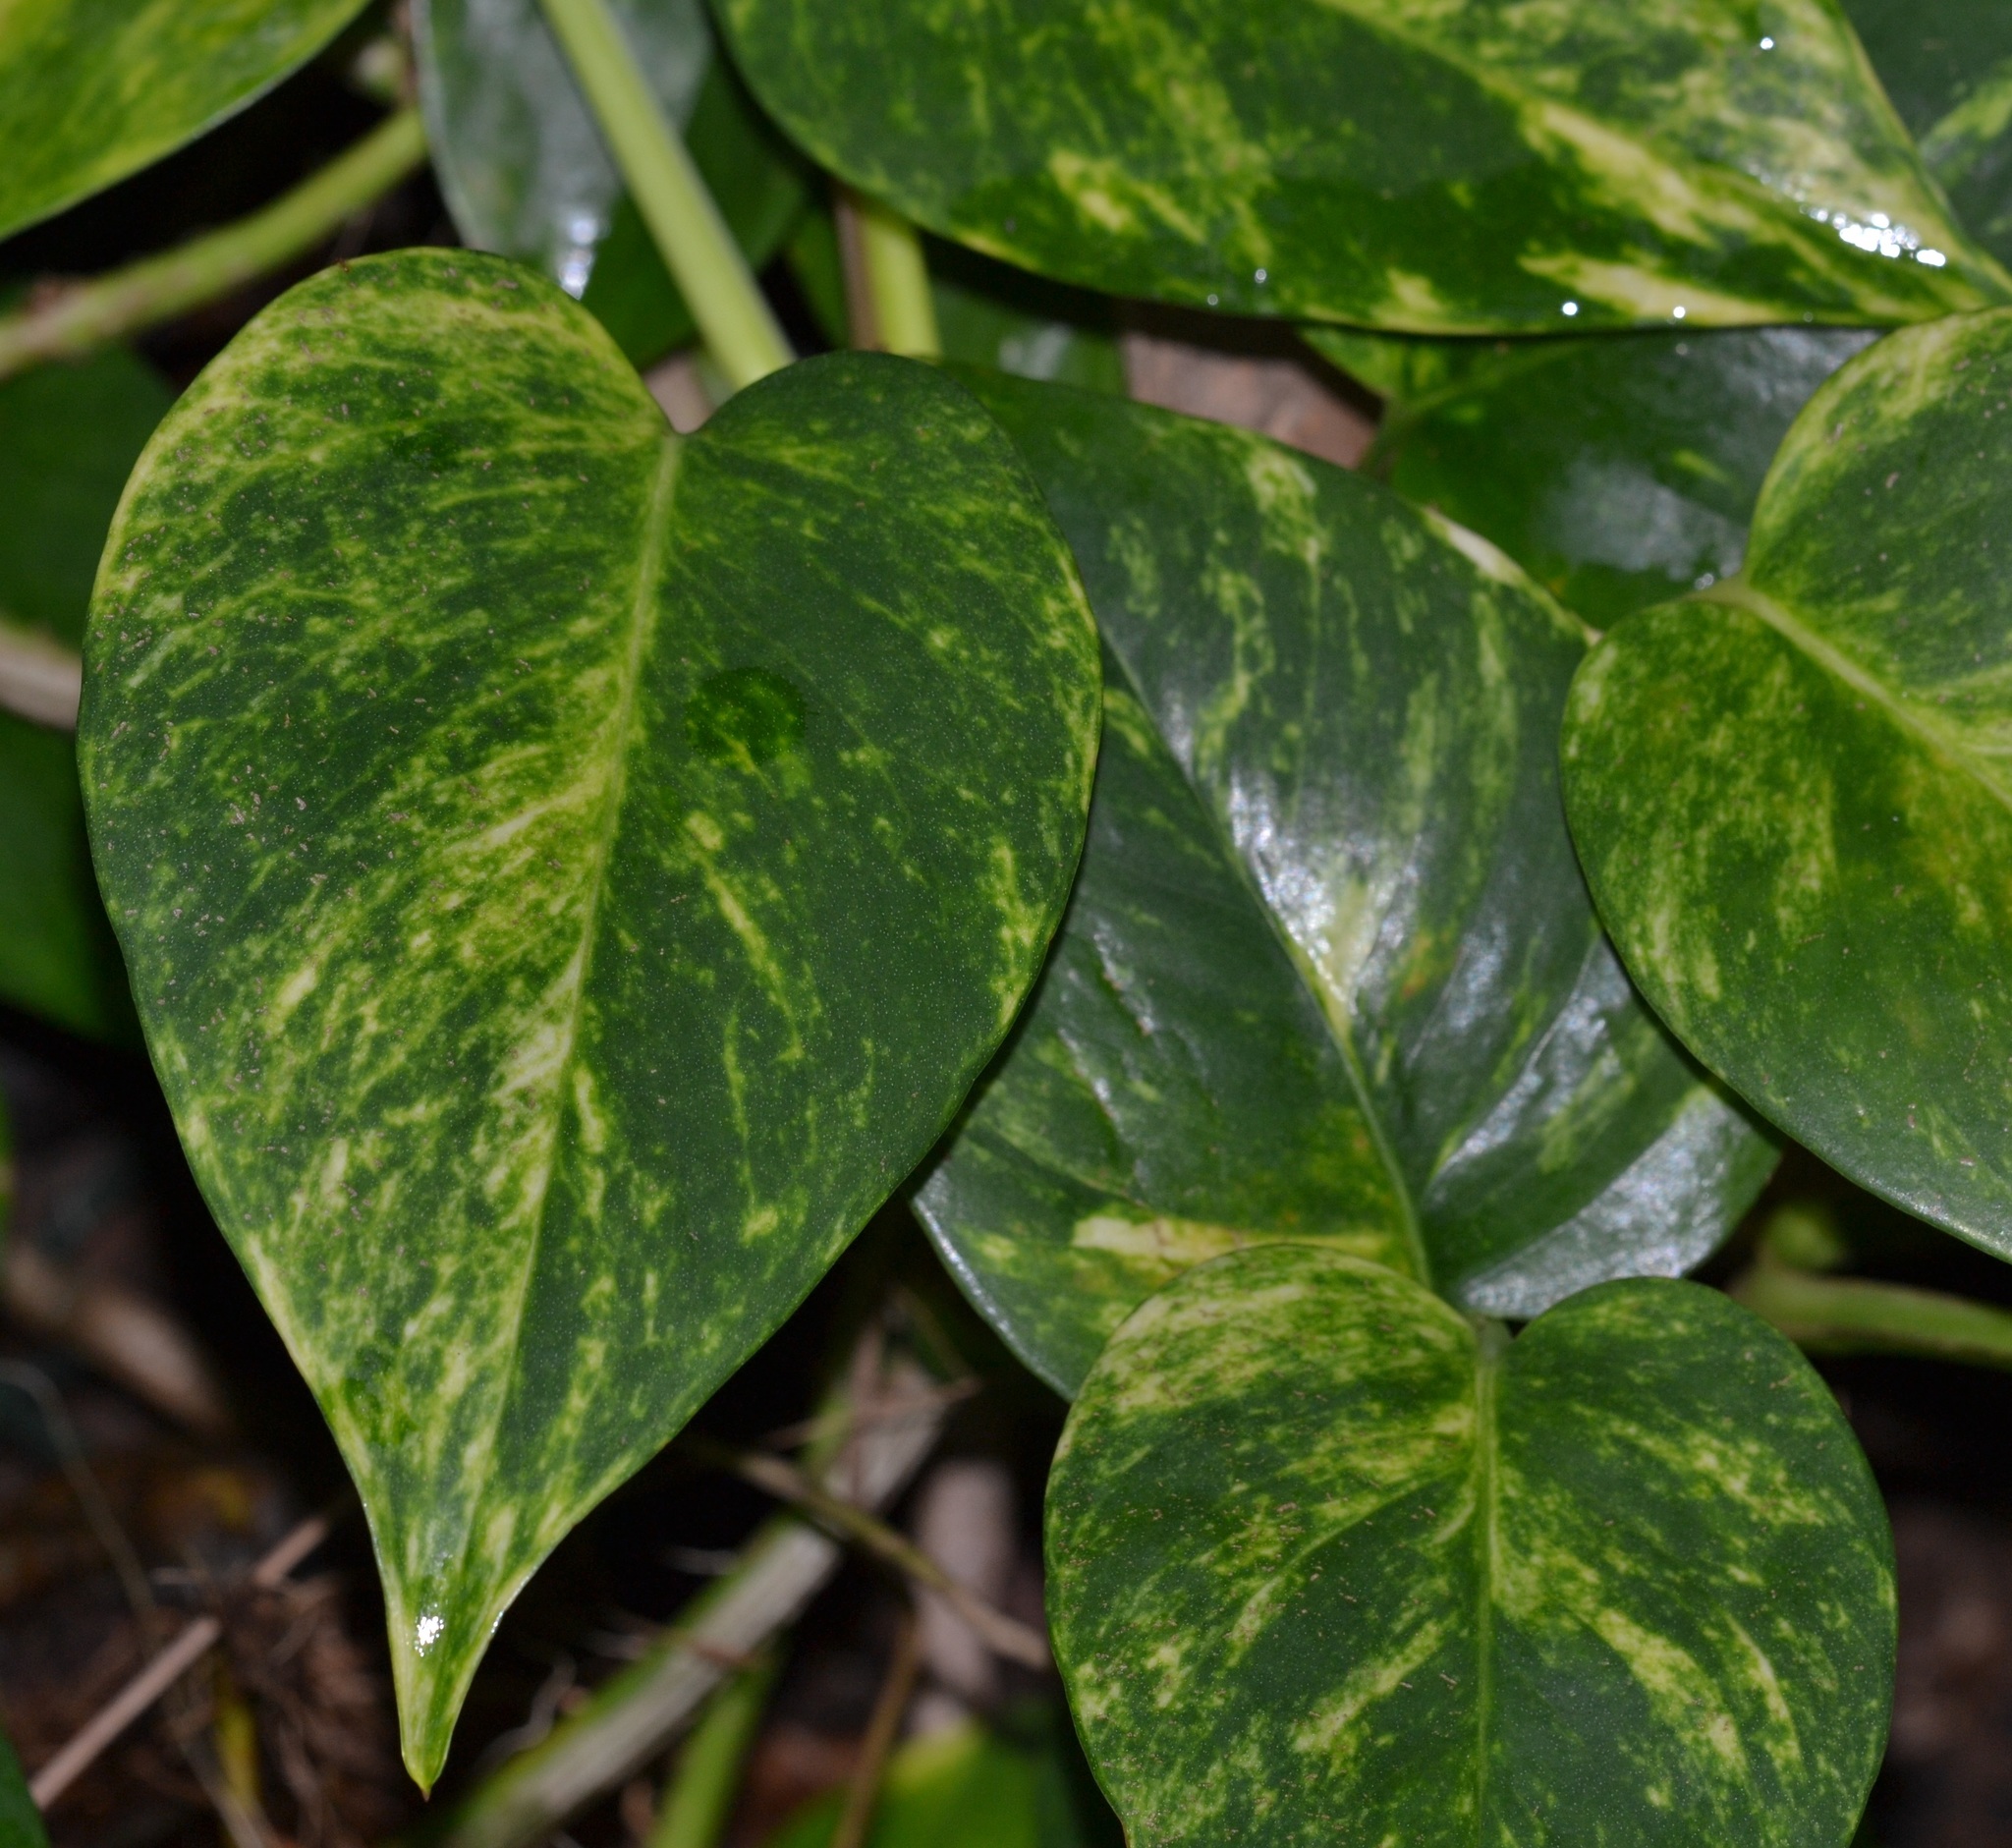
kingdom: Plantae
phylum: Tracheophyta
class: Liliopsida
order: Alismatales
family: Araceae
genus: Epipremnum
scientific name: Epipremnum aureum
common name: Golden hunter's-robe
